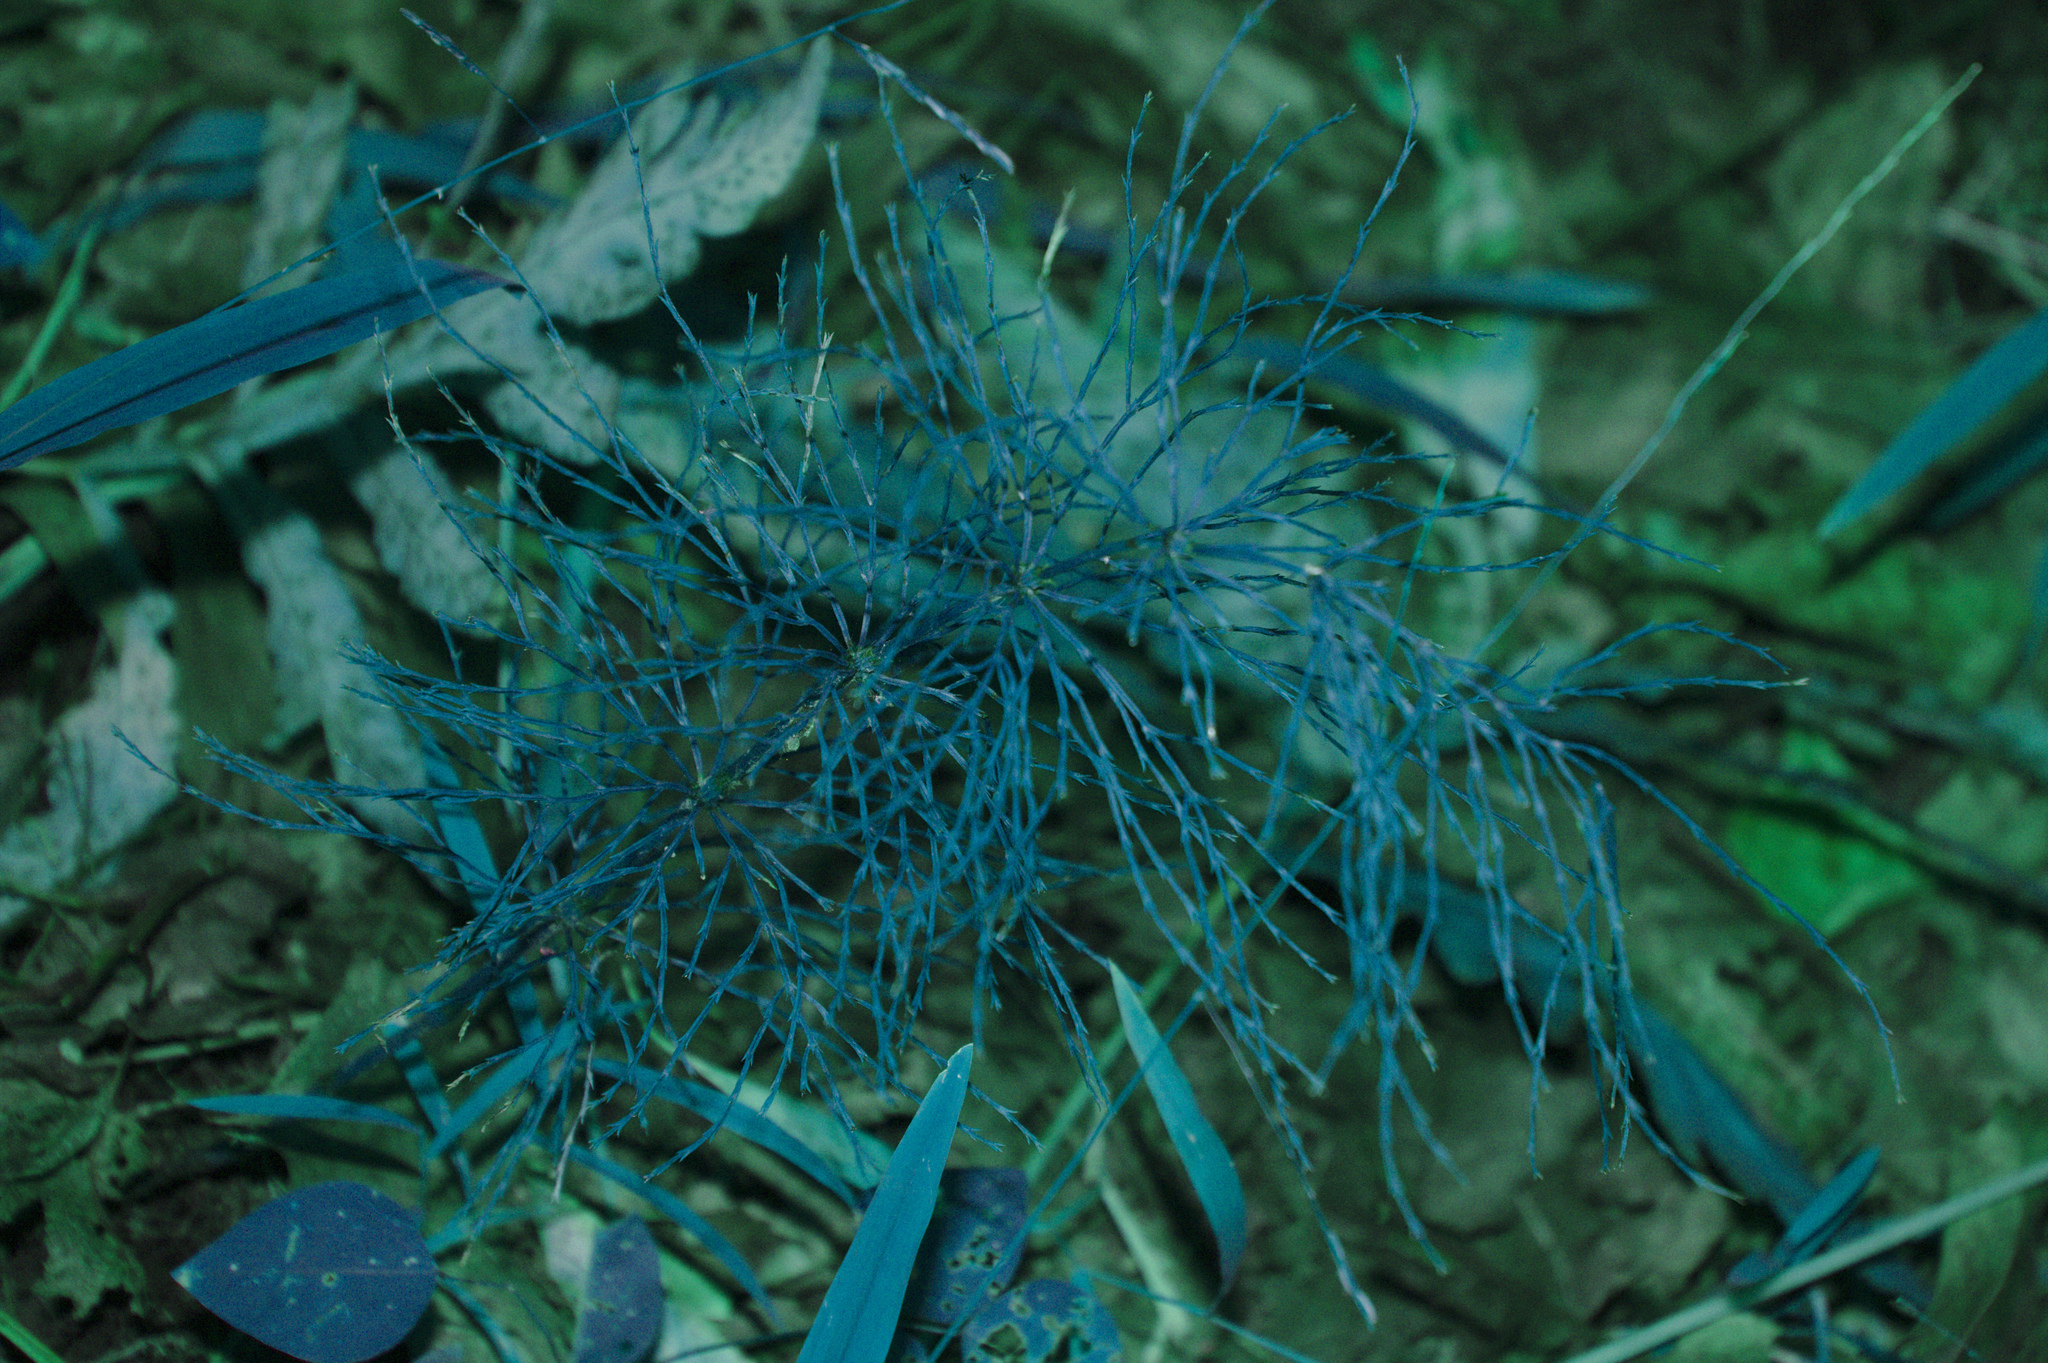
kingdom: Plantae
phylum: Tracheophyta
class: Polypodiopsida
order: Equisetales
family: Equisetaceae
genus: Equisetum
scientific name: Equisetum sylvaticum
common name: Wood horsetail
